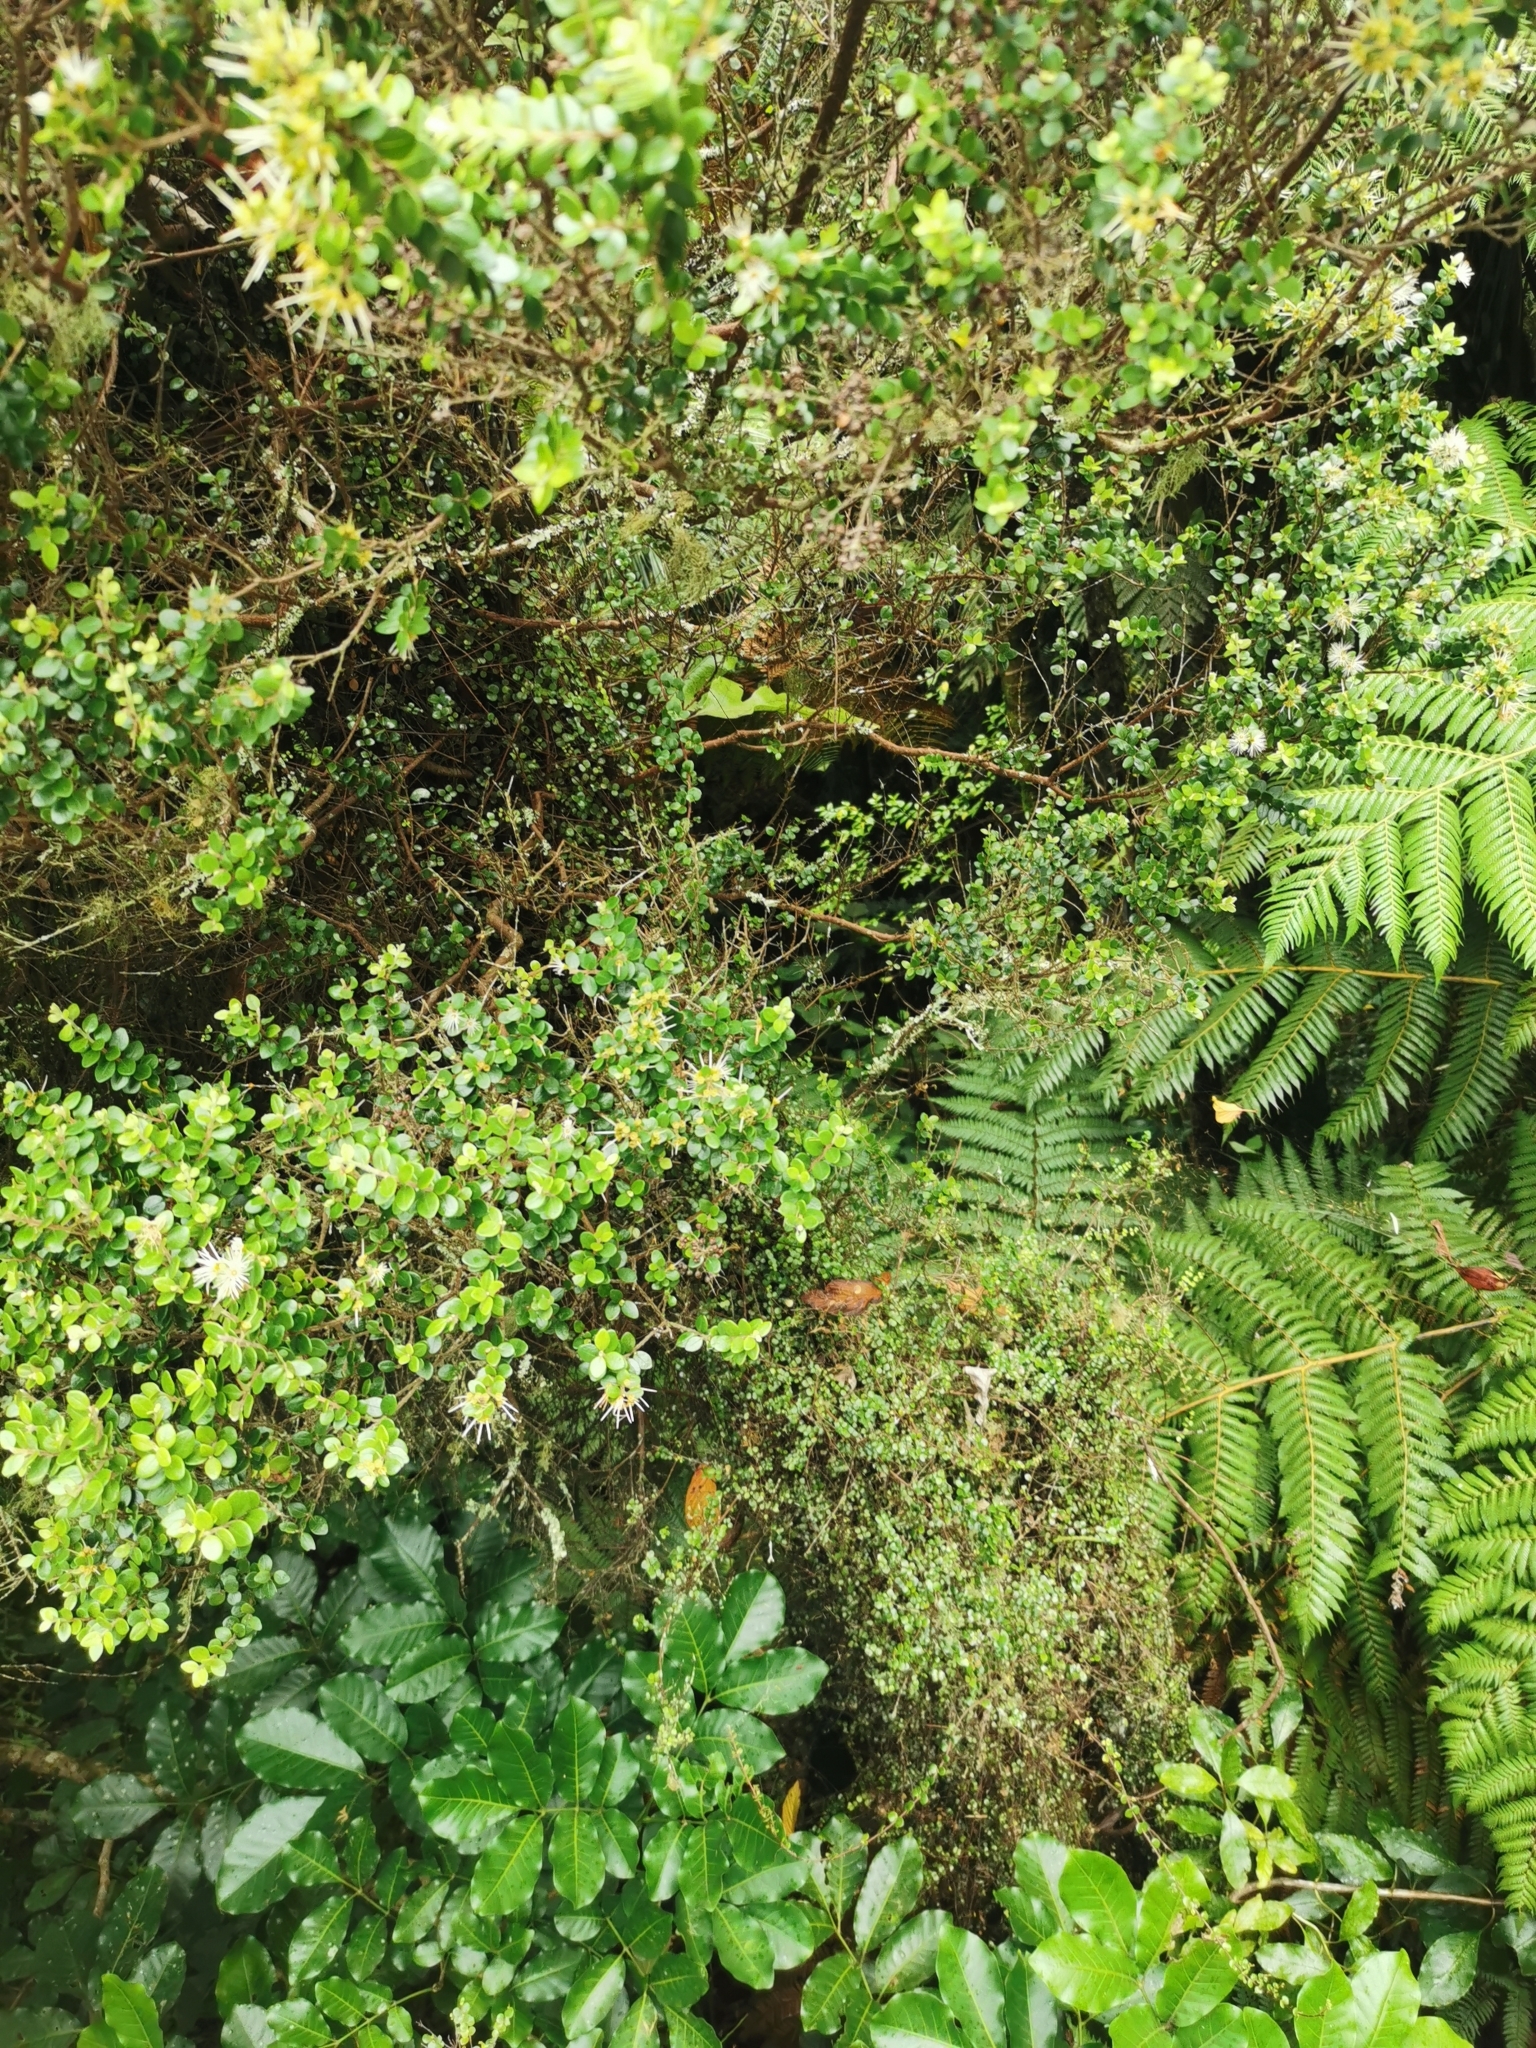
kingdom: Plantae
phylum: Tracheophyta
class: Magnoliopsida
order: Myrtales
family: Myrtaceae
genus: Metrosideros
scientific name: Metrosideros perforata
